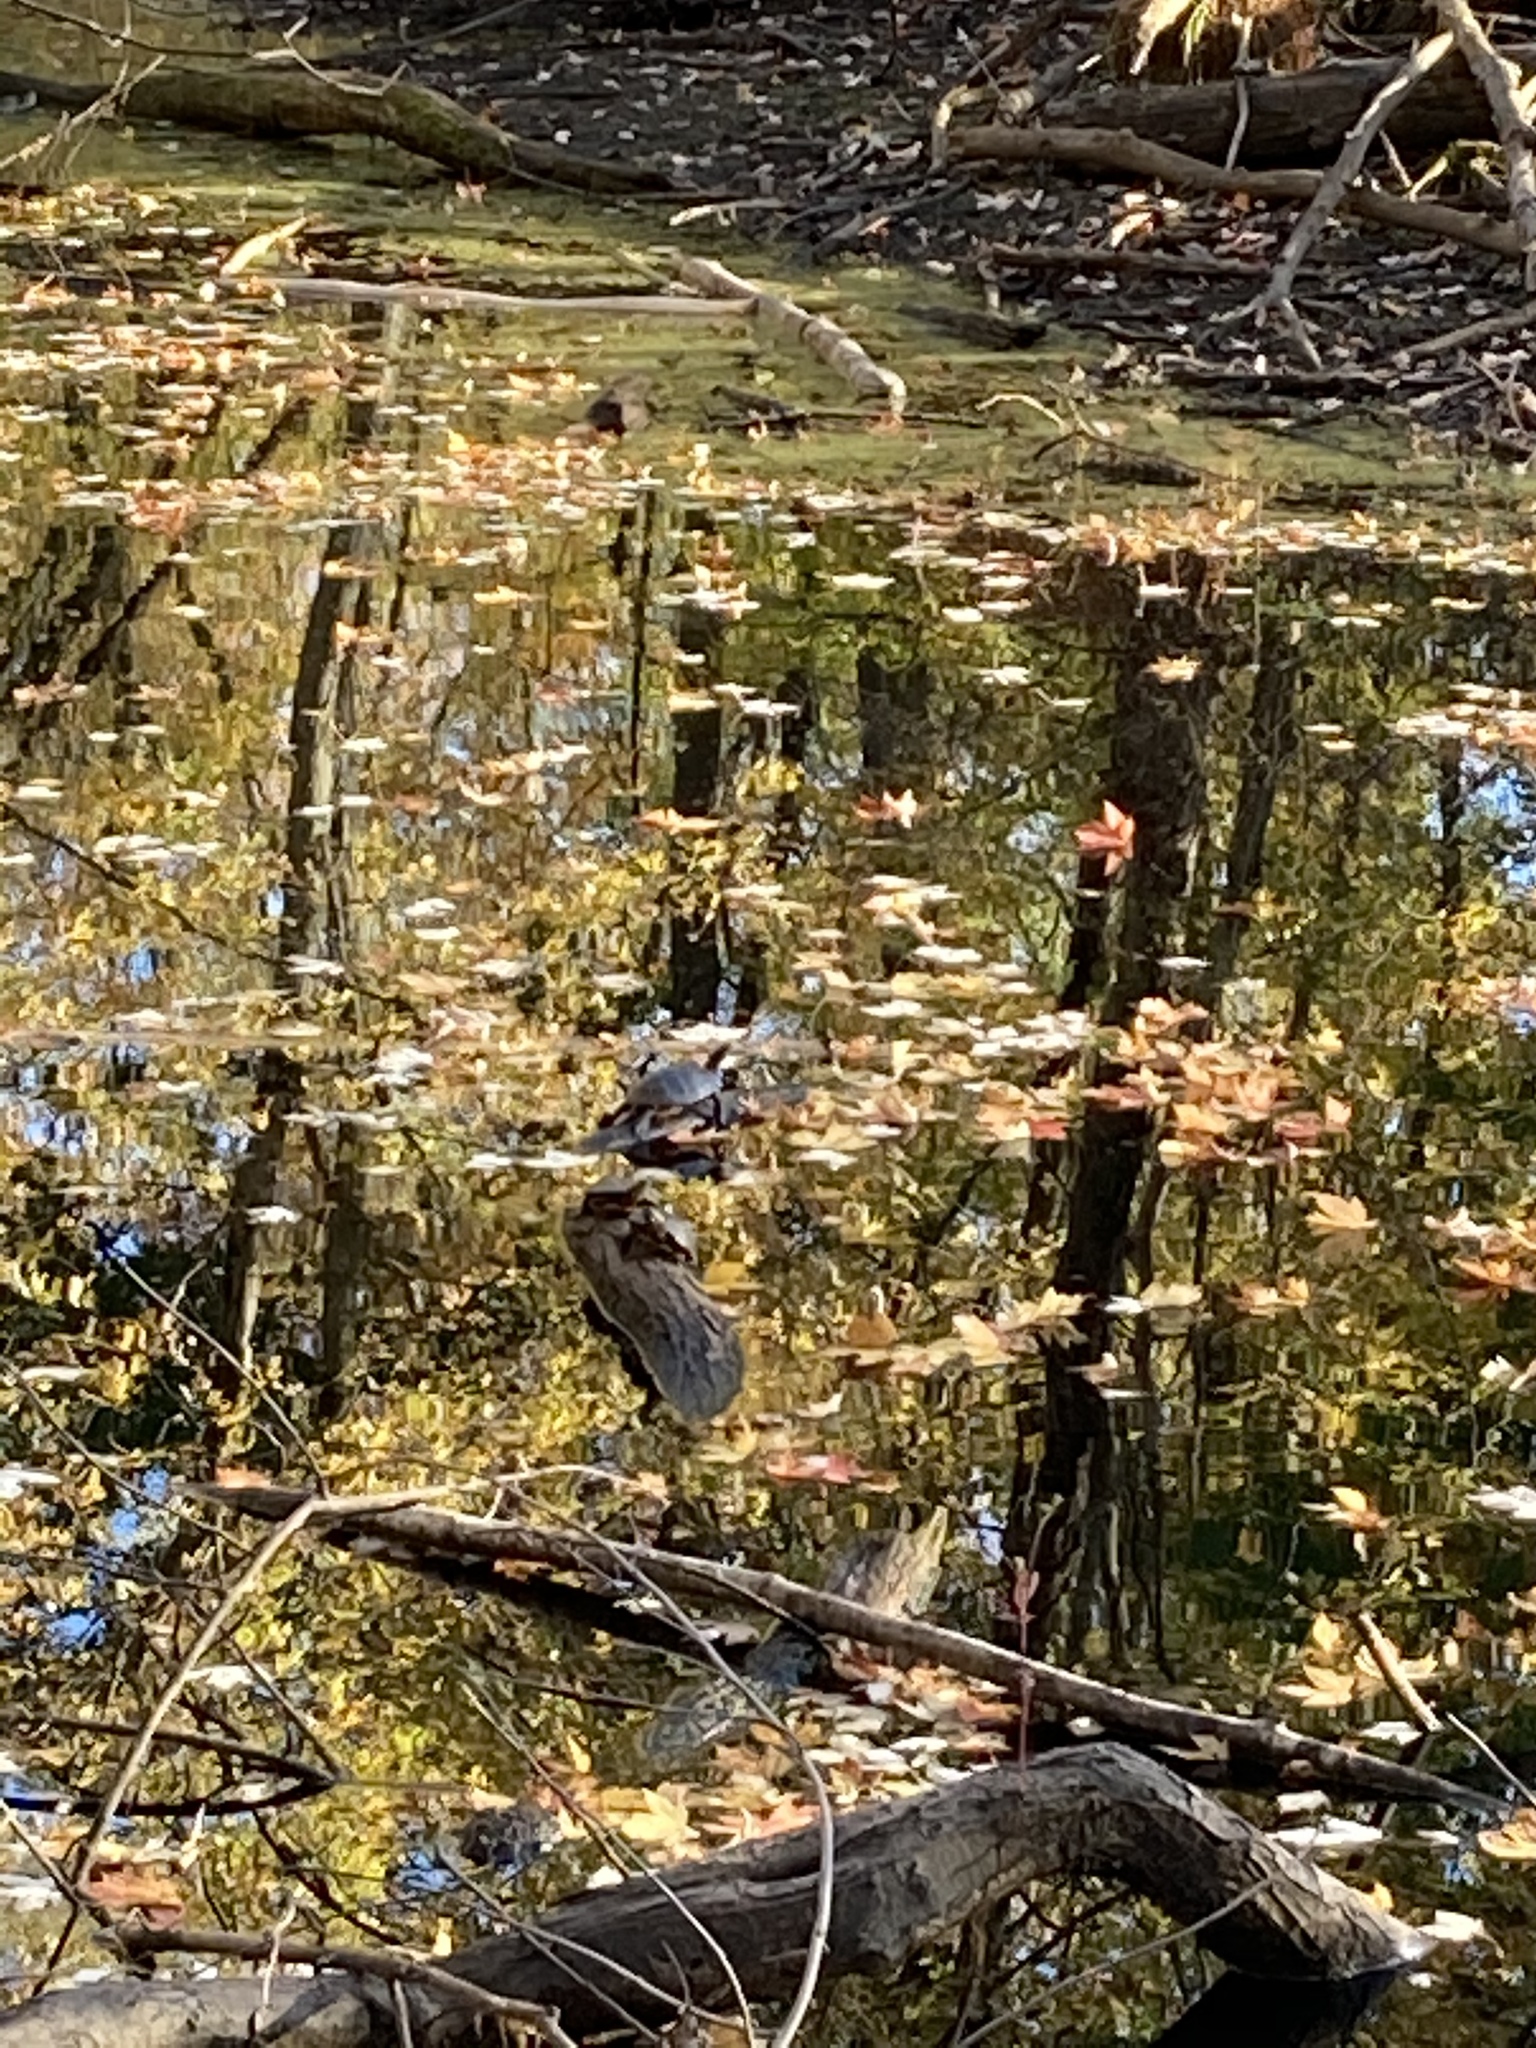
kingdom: Animalia
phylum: Chordata
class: Testudines
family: Emydidae
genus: Chrysemys
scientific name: Chrysemys picta
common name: Painted turtle
